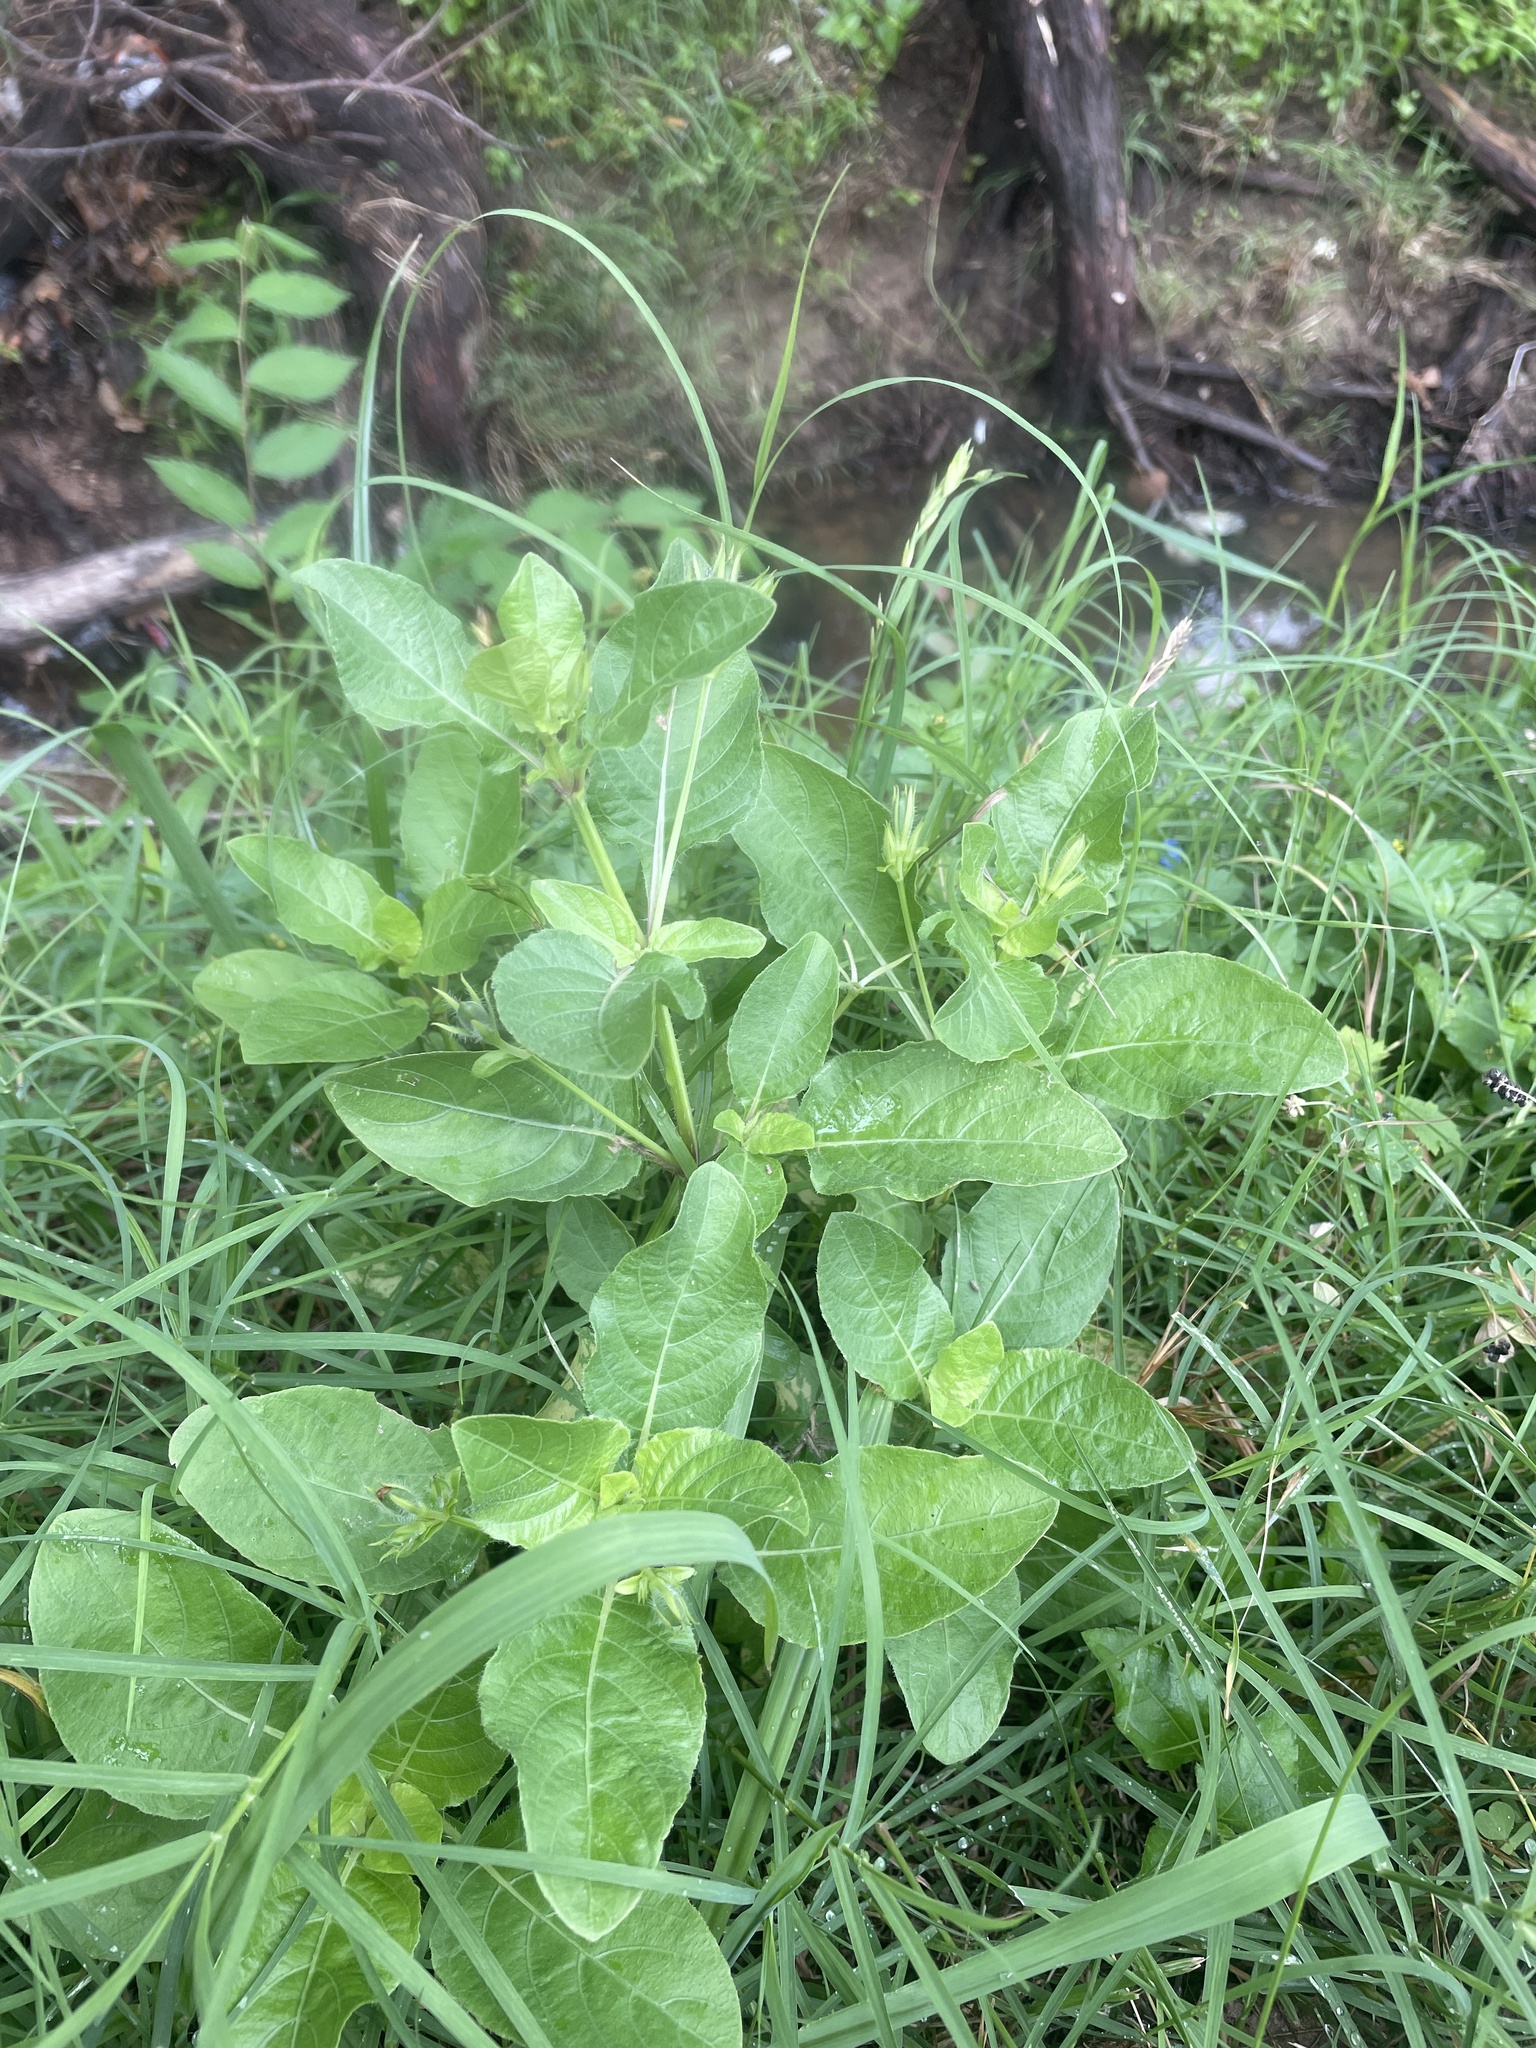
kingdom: Plantae
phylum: Tracheophyta
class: Magnoliopsida
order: Lamiales
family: Acanthaceae
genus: Ruellia
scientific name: Ruellia ciliatiflora
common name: Hairyflower wild petunia
